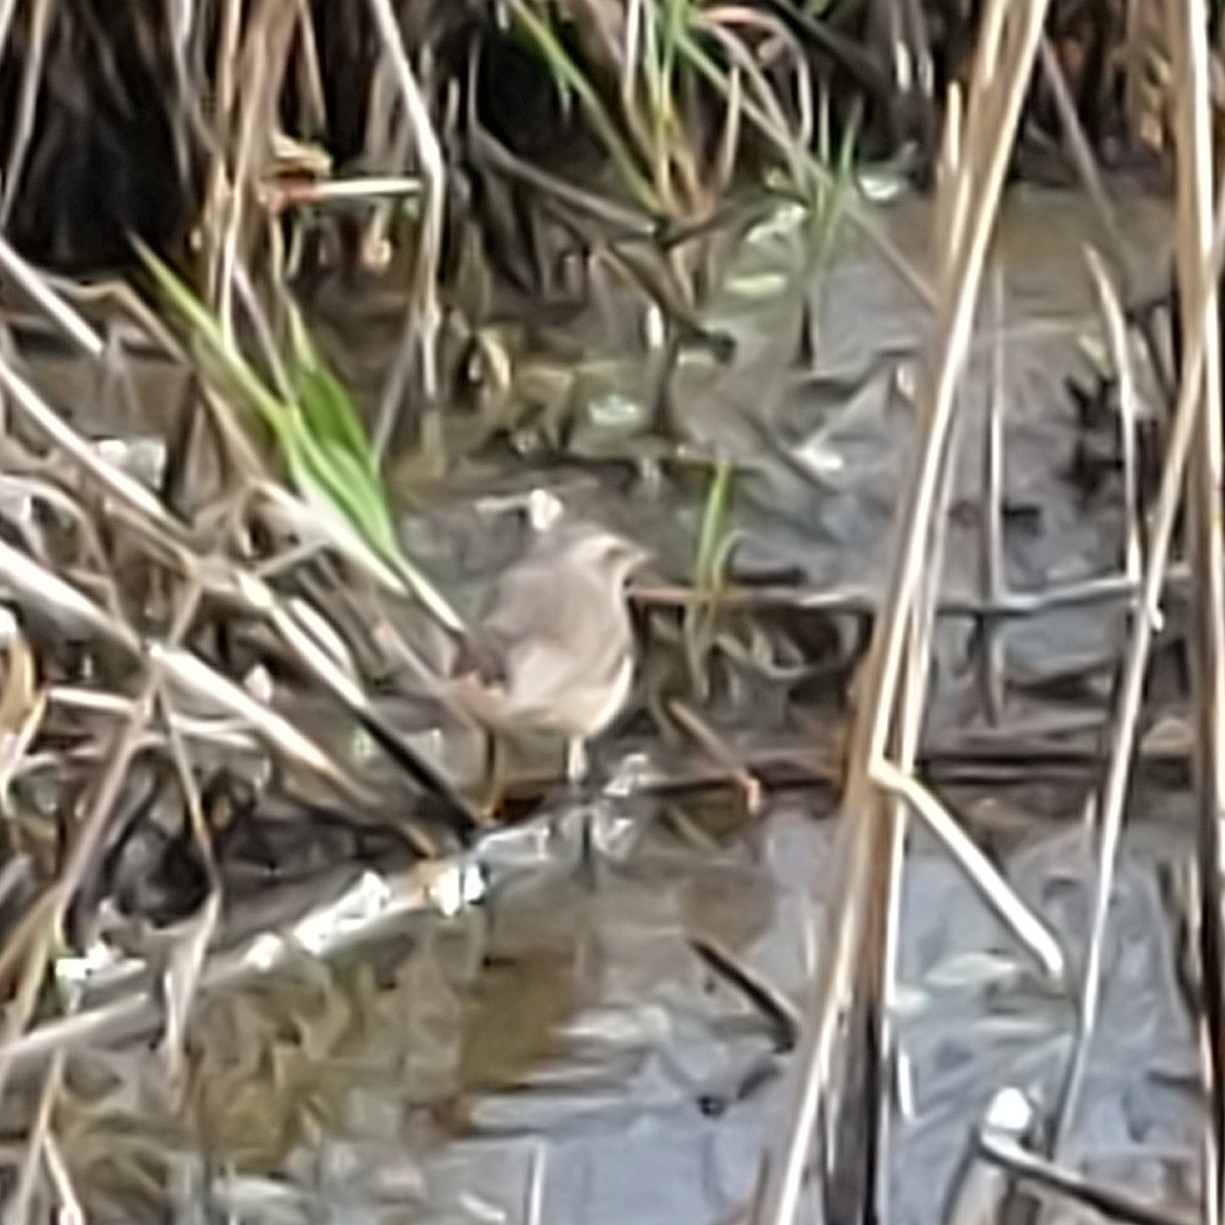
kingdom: Animalia
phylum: Chordata
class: Aves
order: Passeriformes
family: Muscicapidae
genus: Luscinia
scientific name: Luscinia svecica
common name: Bluethroat
